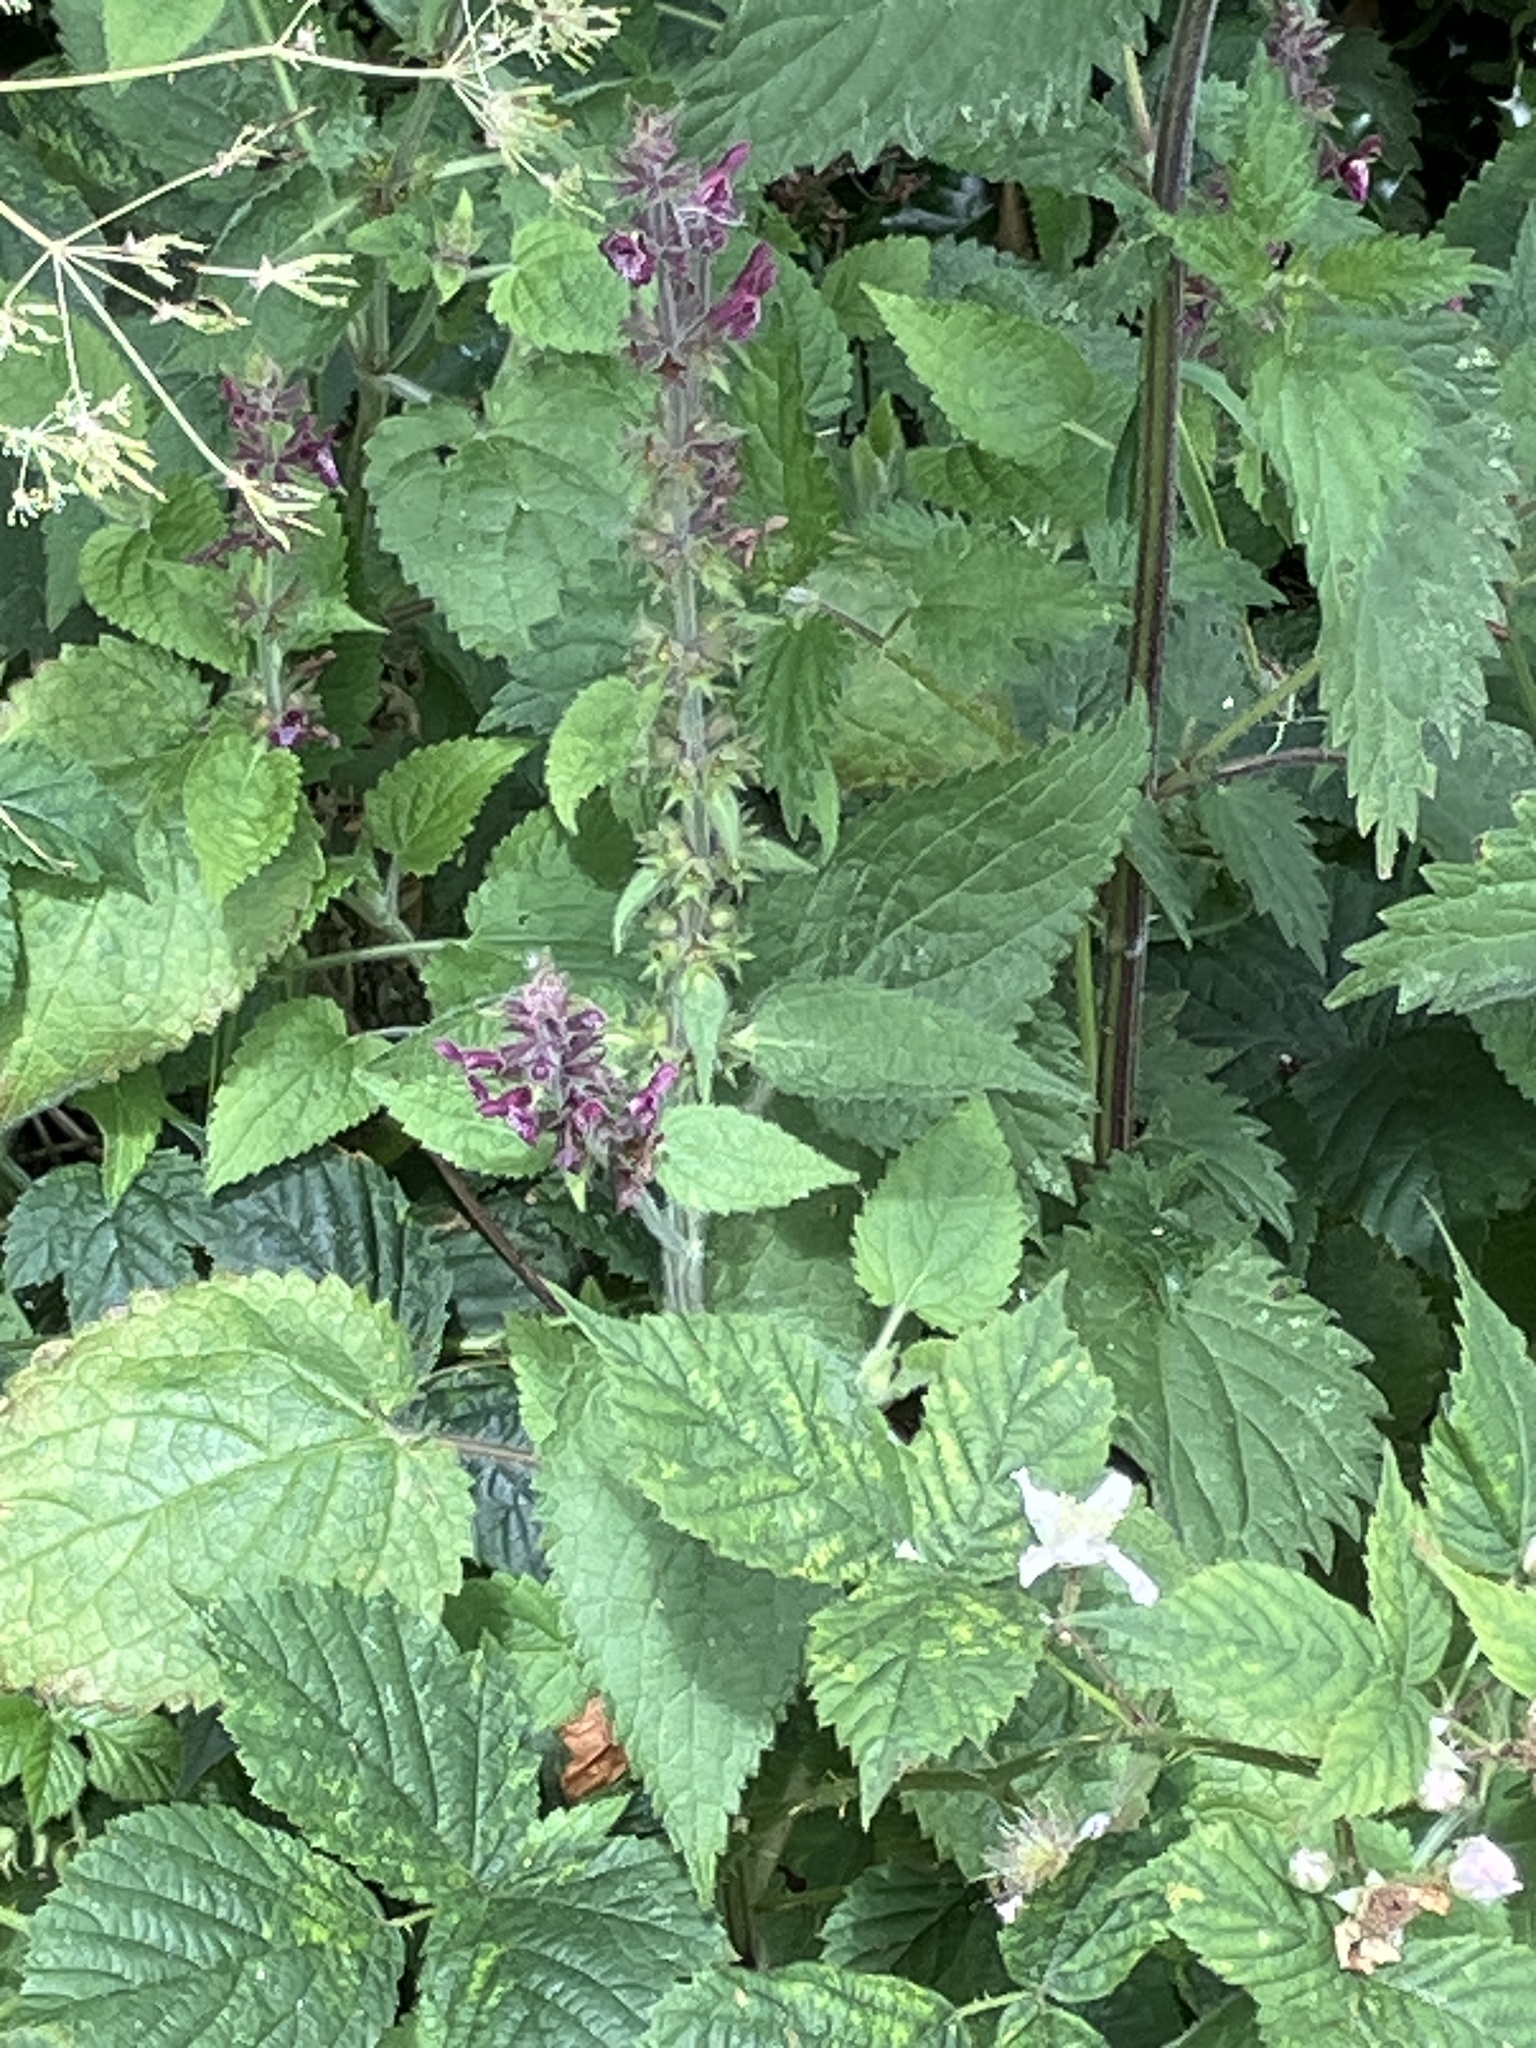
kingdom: Plantae
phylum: Tracheophyta
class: Magnoliopsida
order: Lamiales
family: Lamiaceae
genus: Stachys
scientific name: Stachys sylvatica
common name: Hedge woundwort
